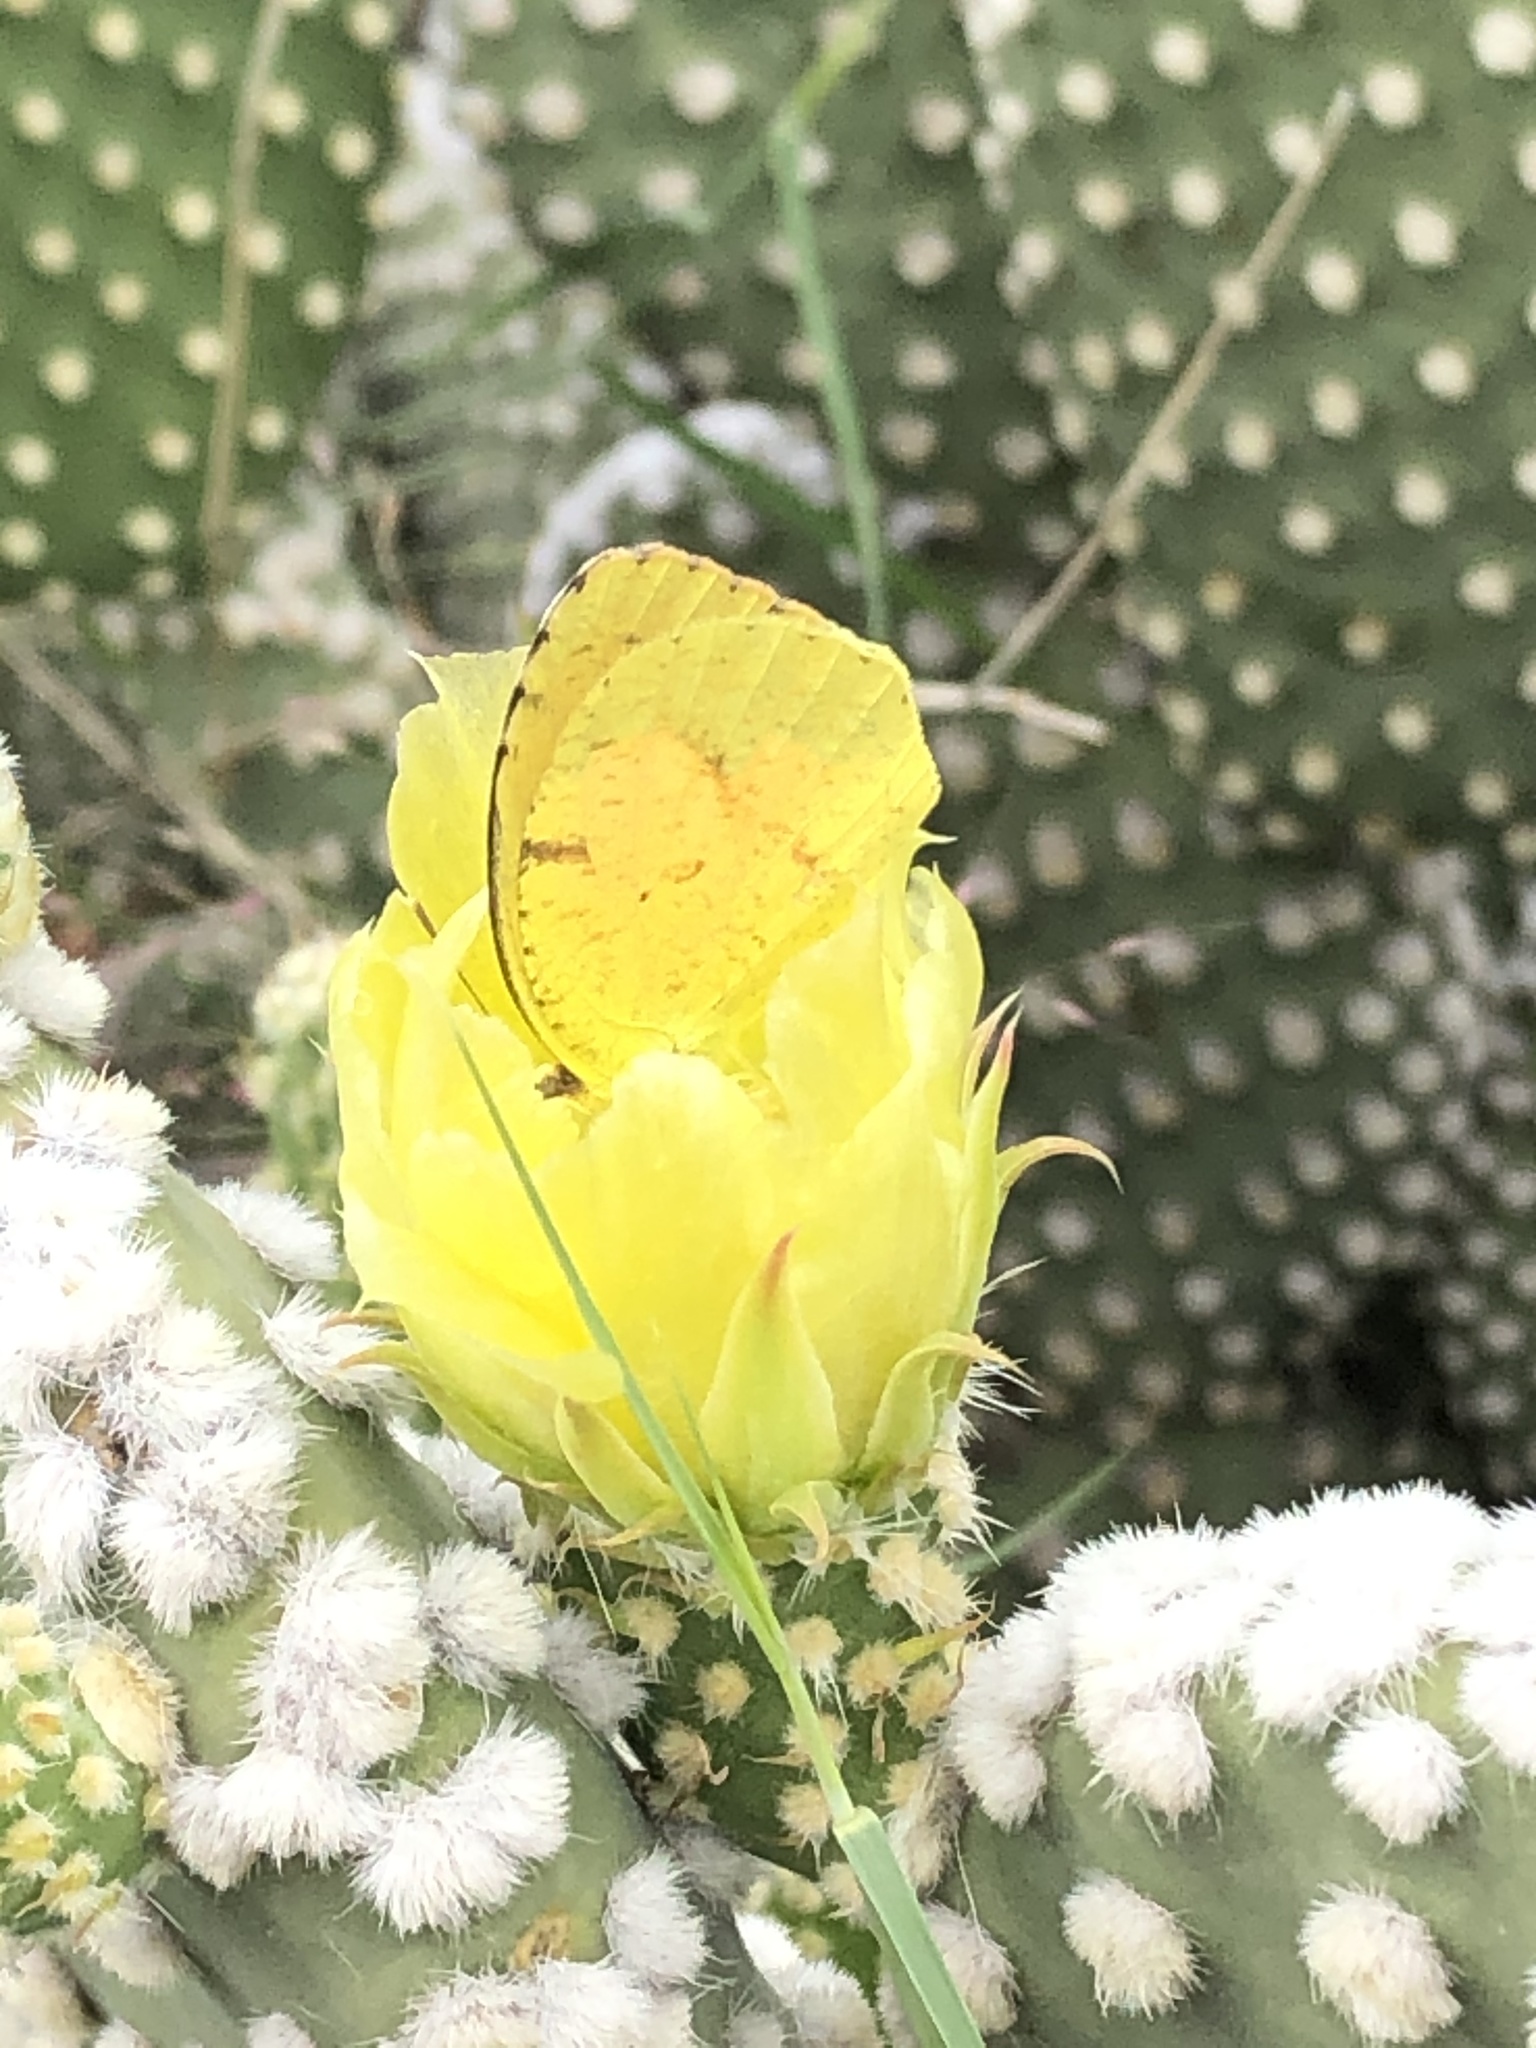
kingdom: Animalia
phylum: Arthropoda
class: Insecta
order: Lepidoptera
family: Pieridae
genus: Abaeis
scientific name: Abaeis nicippe
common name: Sleepy orange
